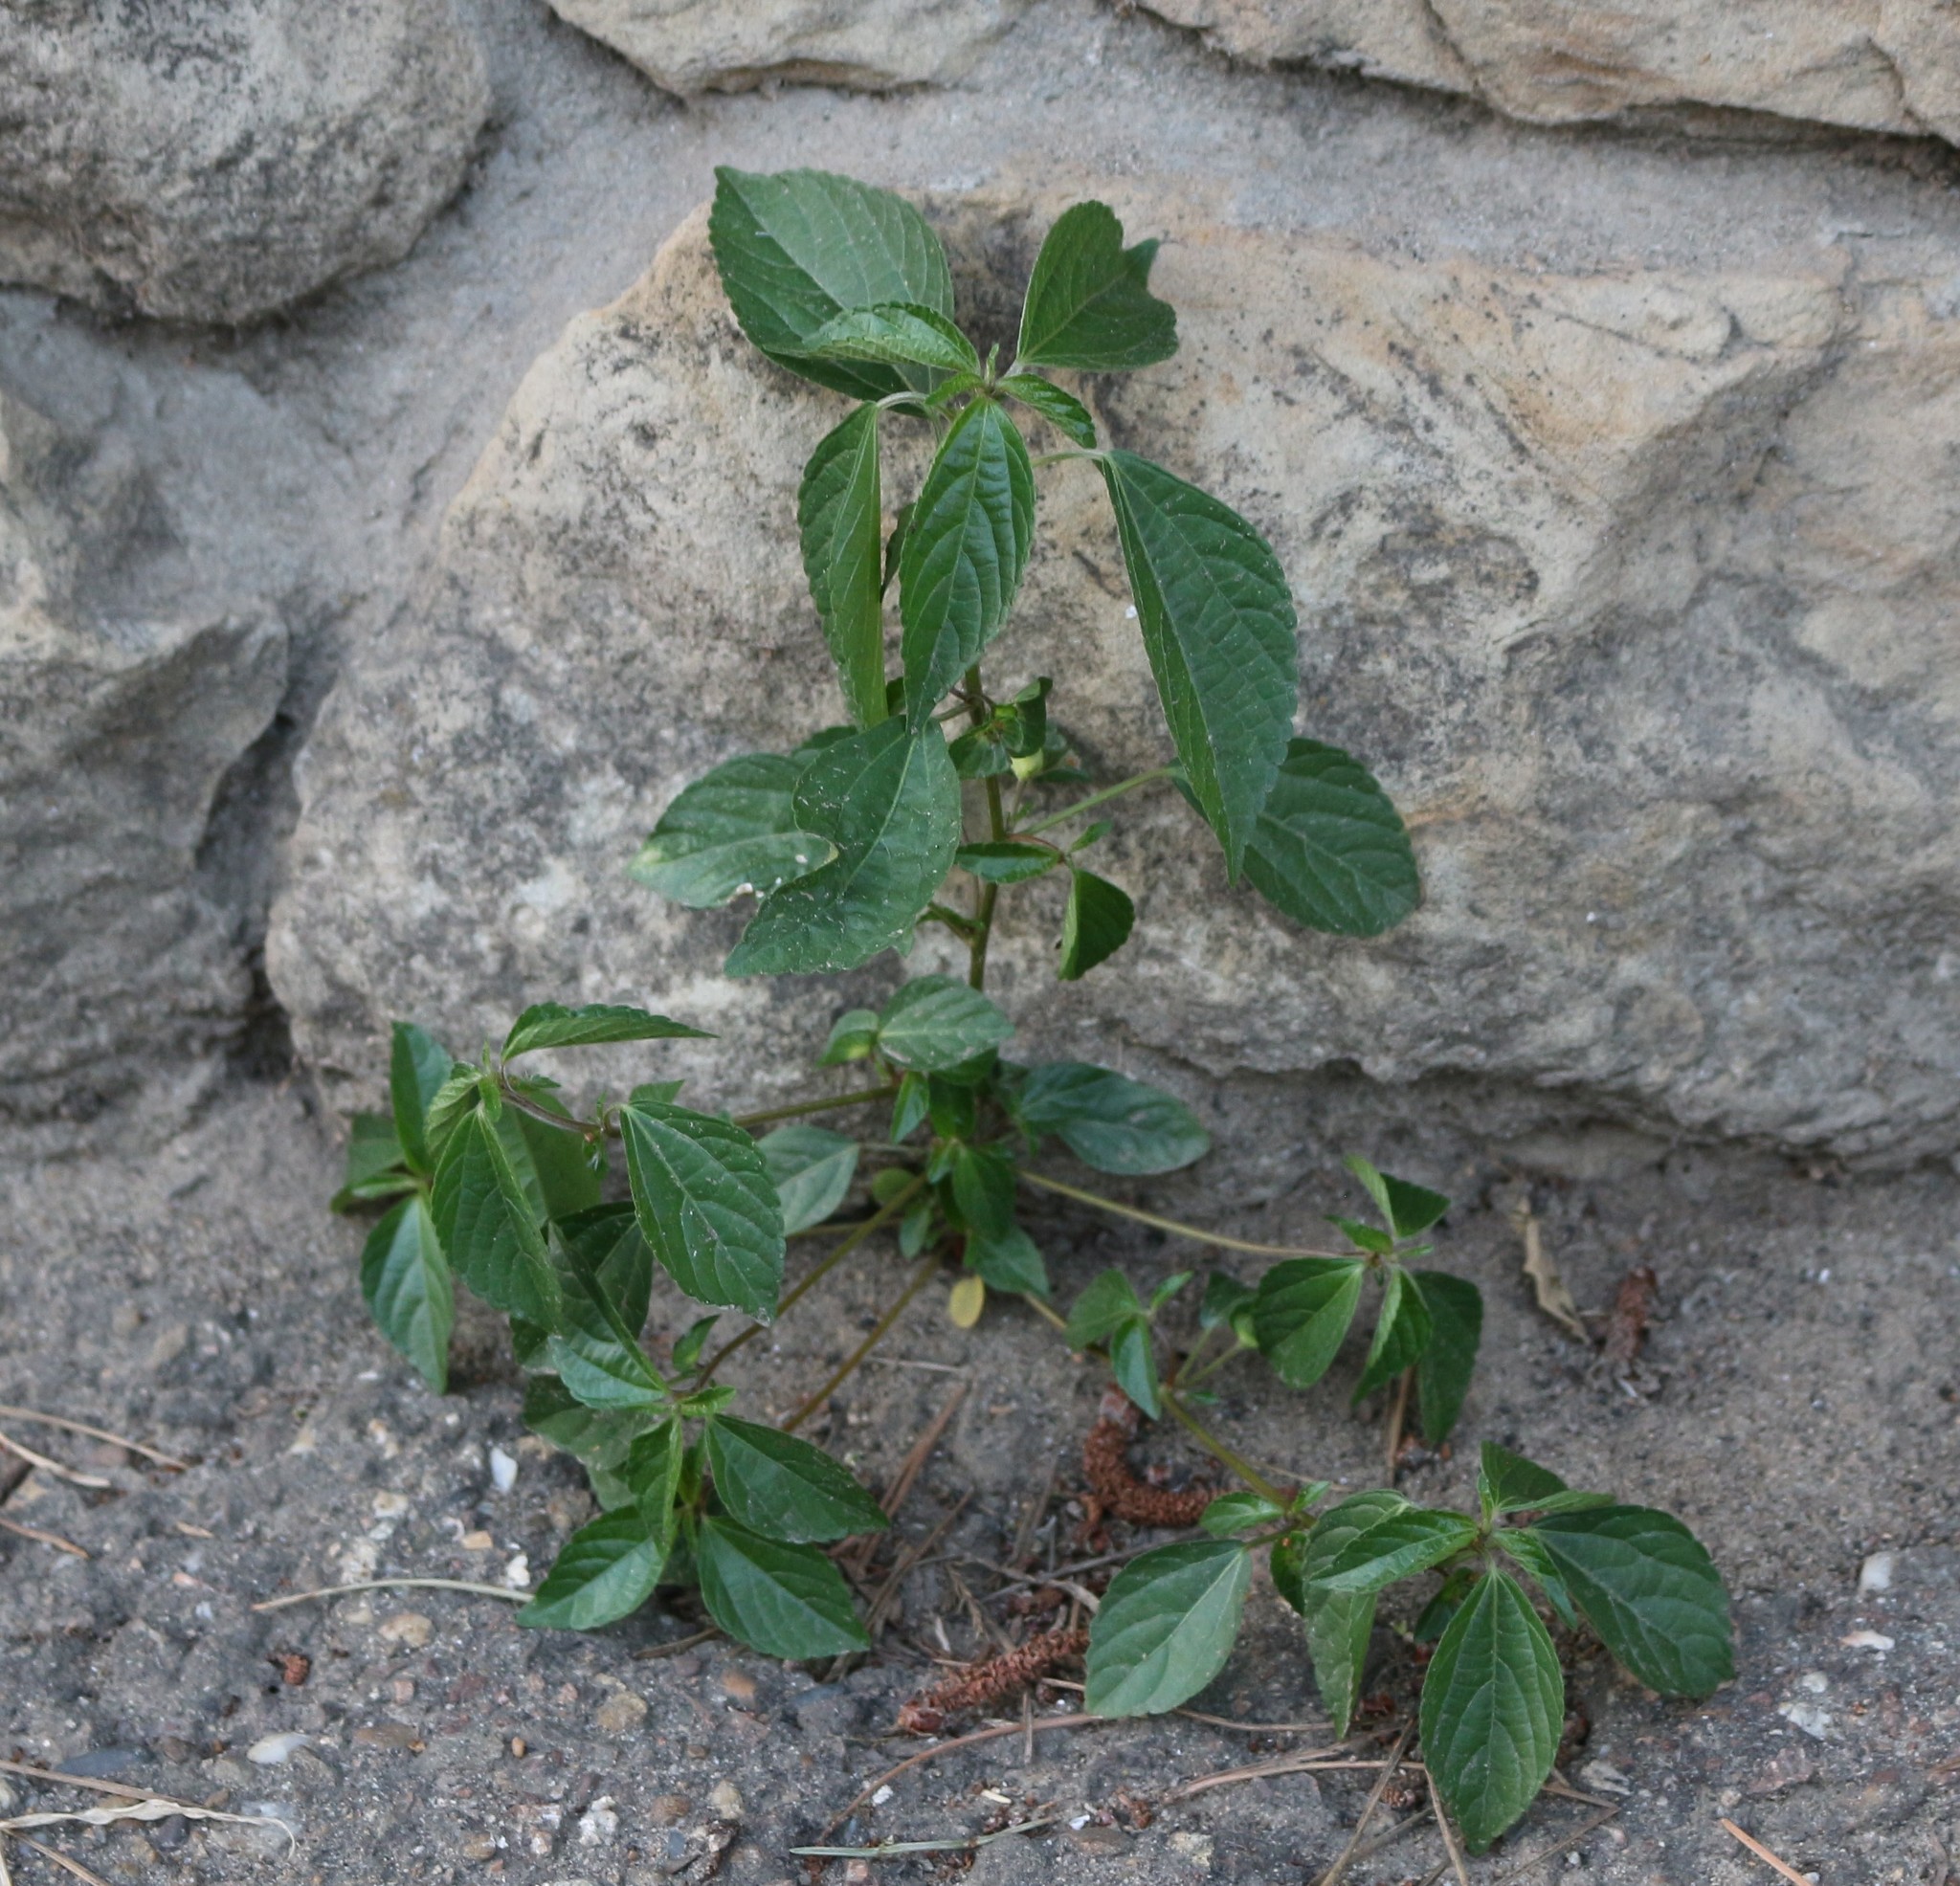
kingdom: Plantae
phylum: Tracheophyta
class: Magnoliopsida
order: Malpighiales
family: Euphorbiaceae
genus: Acalypha
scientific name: Acalypha australis
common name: Asian copperleaf
